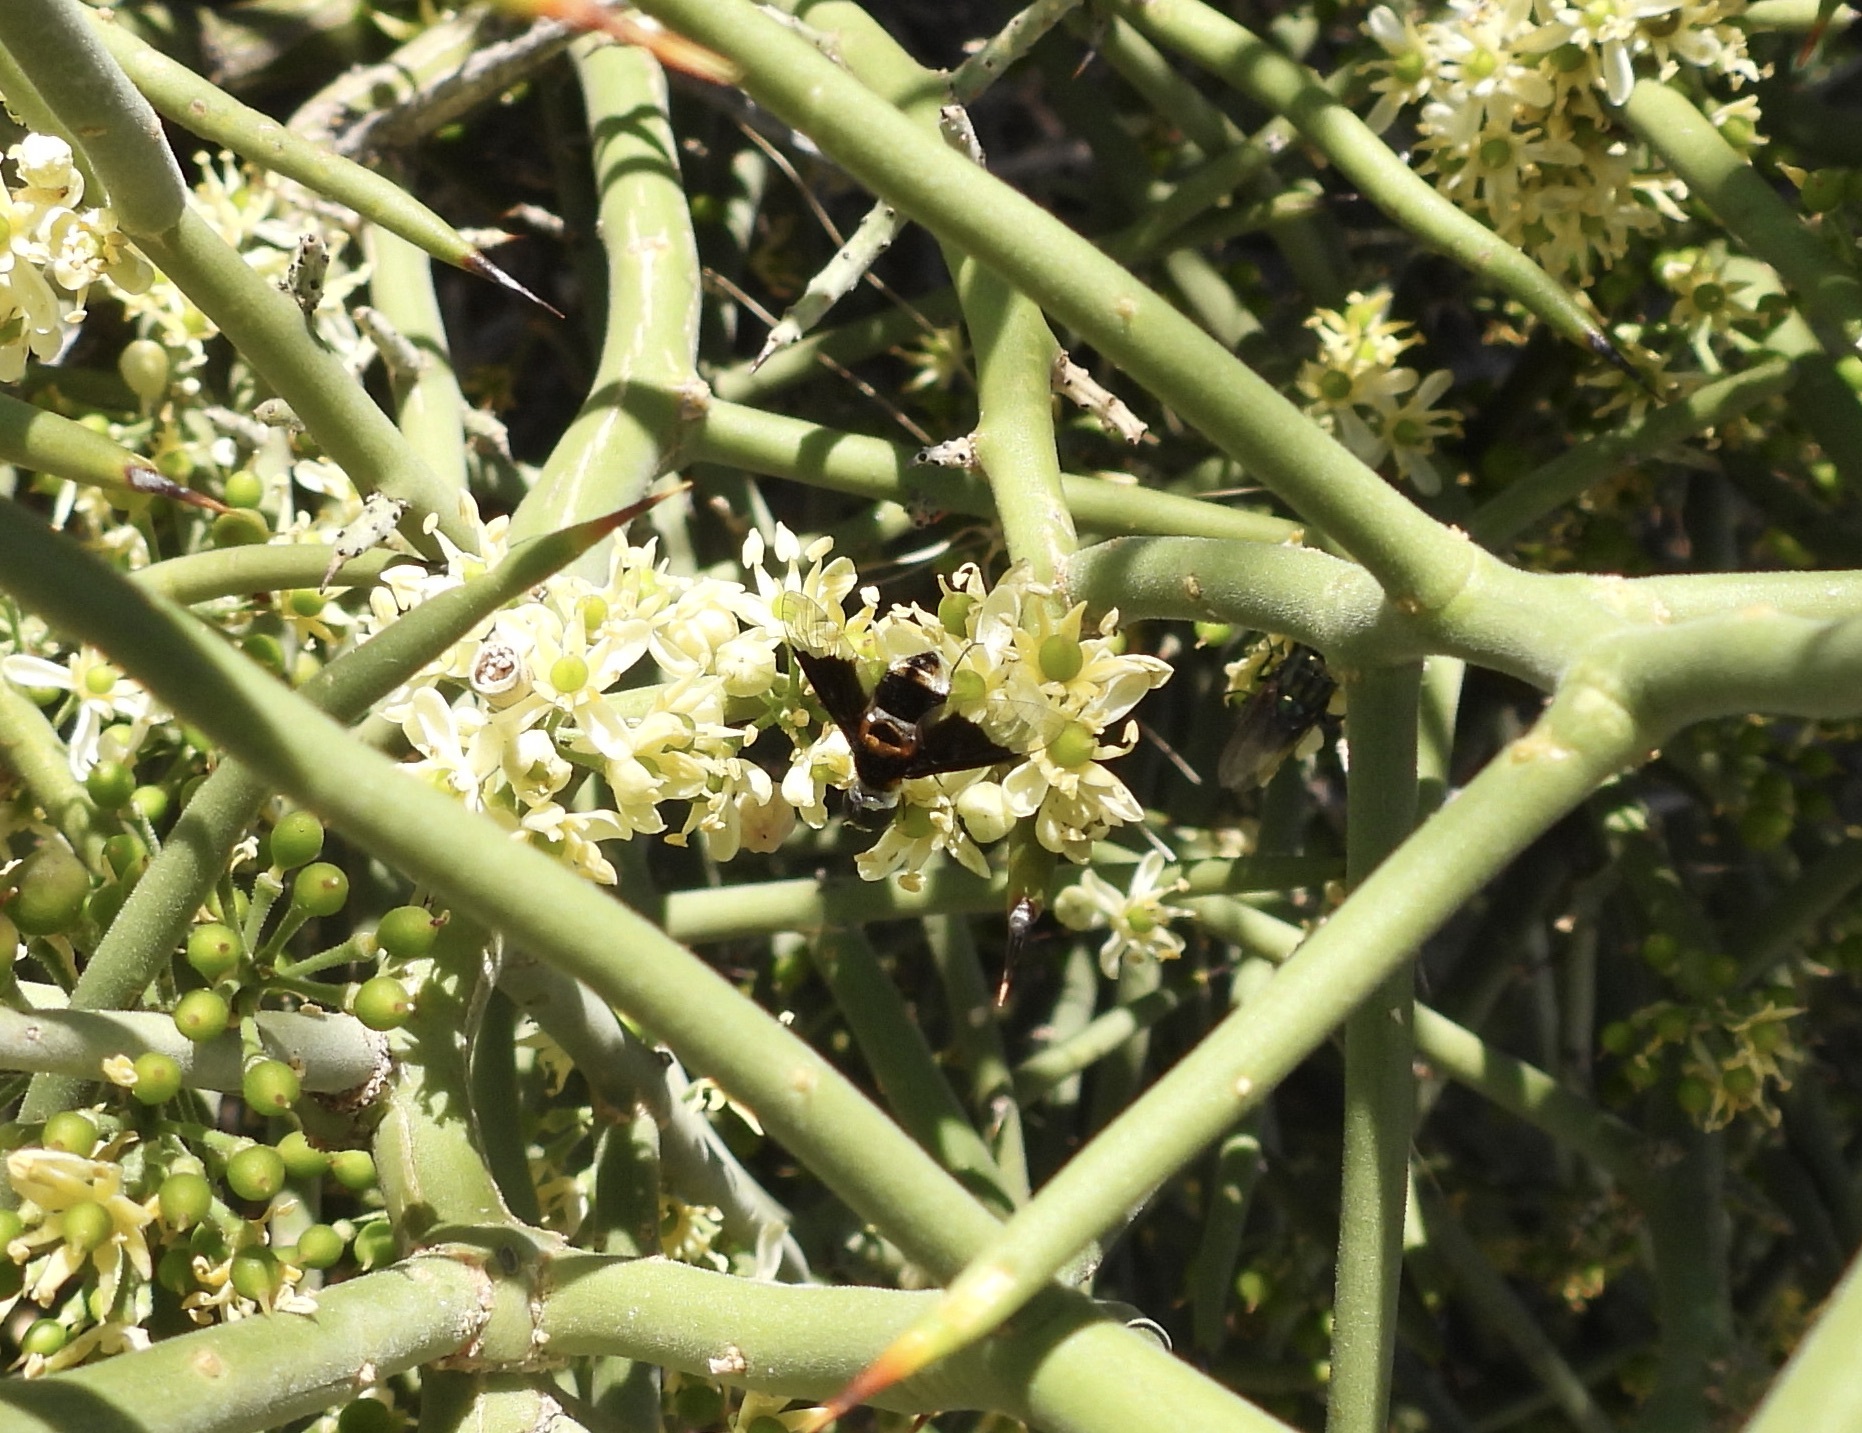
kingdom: Animalia
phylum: Arthropoda
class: Insecta
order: Diptera
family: Bombyliidae
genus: Ins
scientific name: Ins curtus
